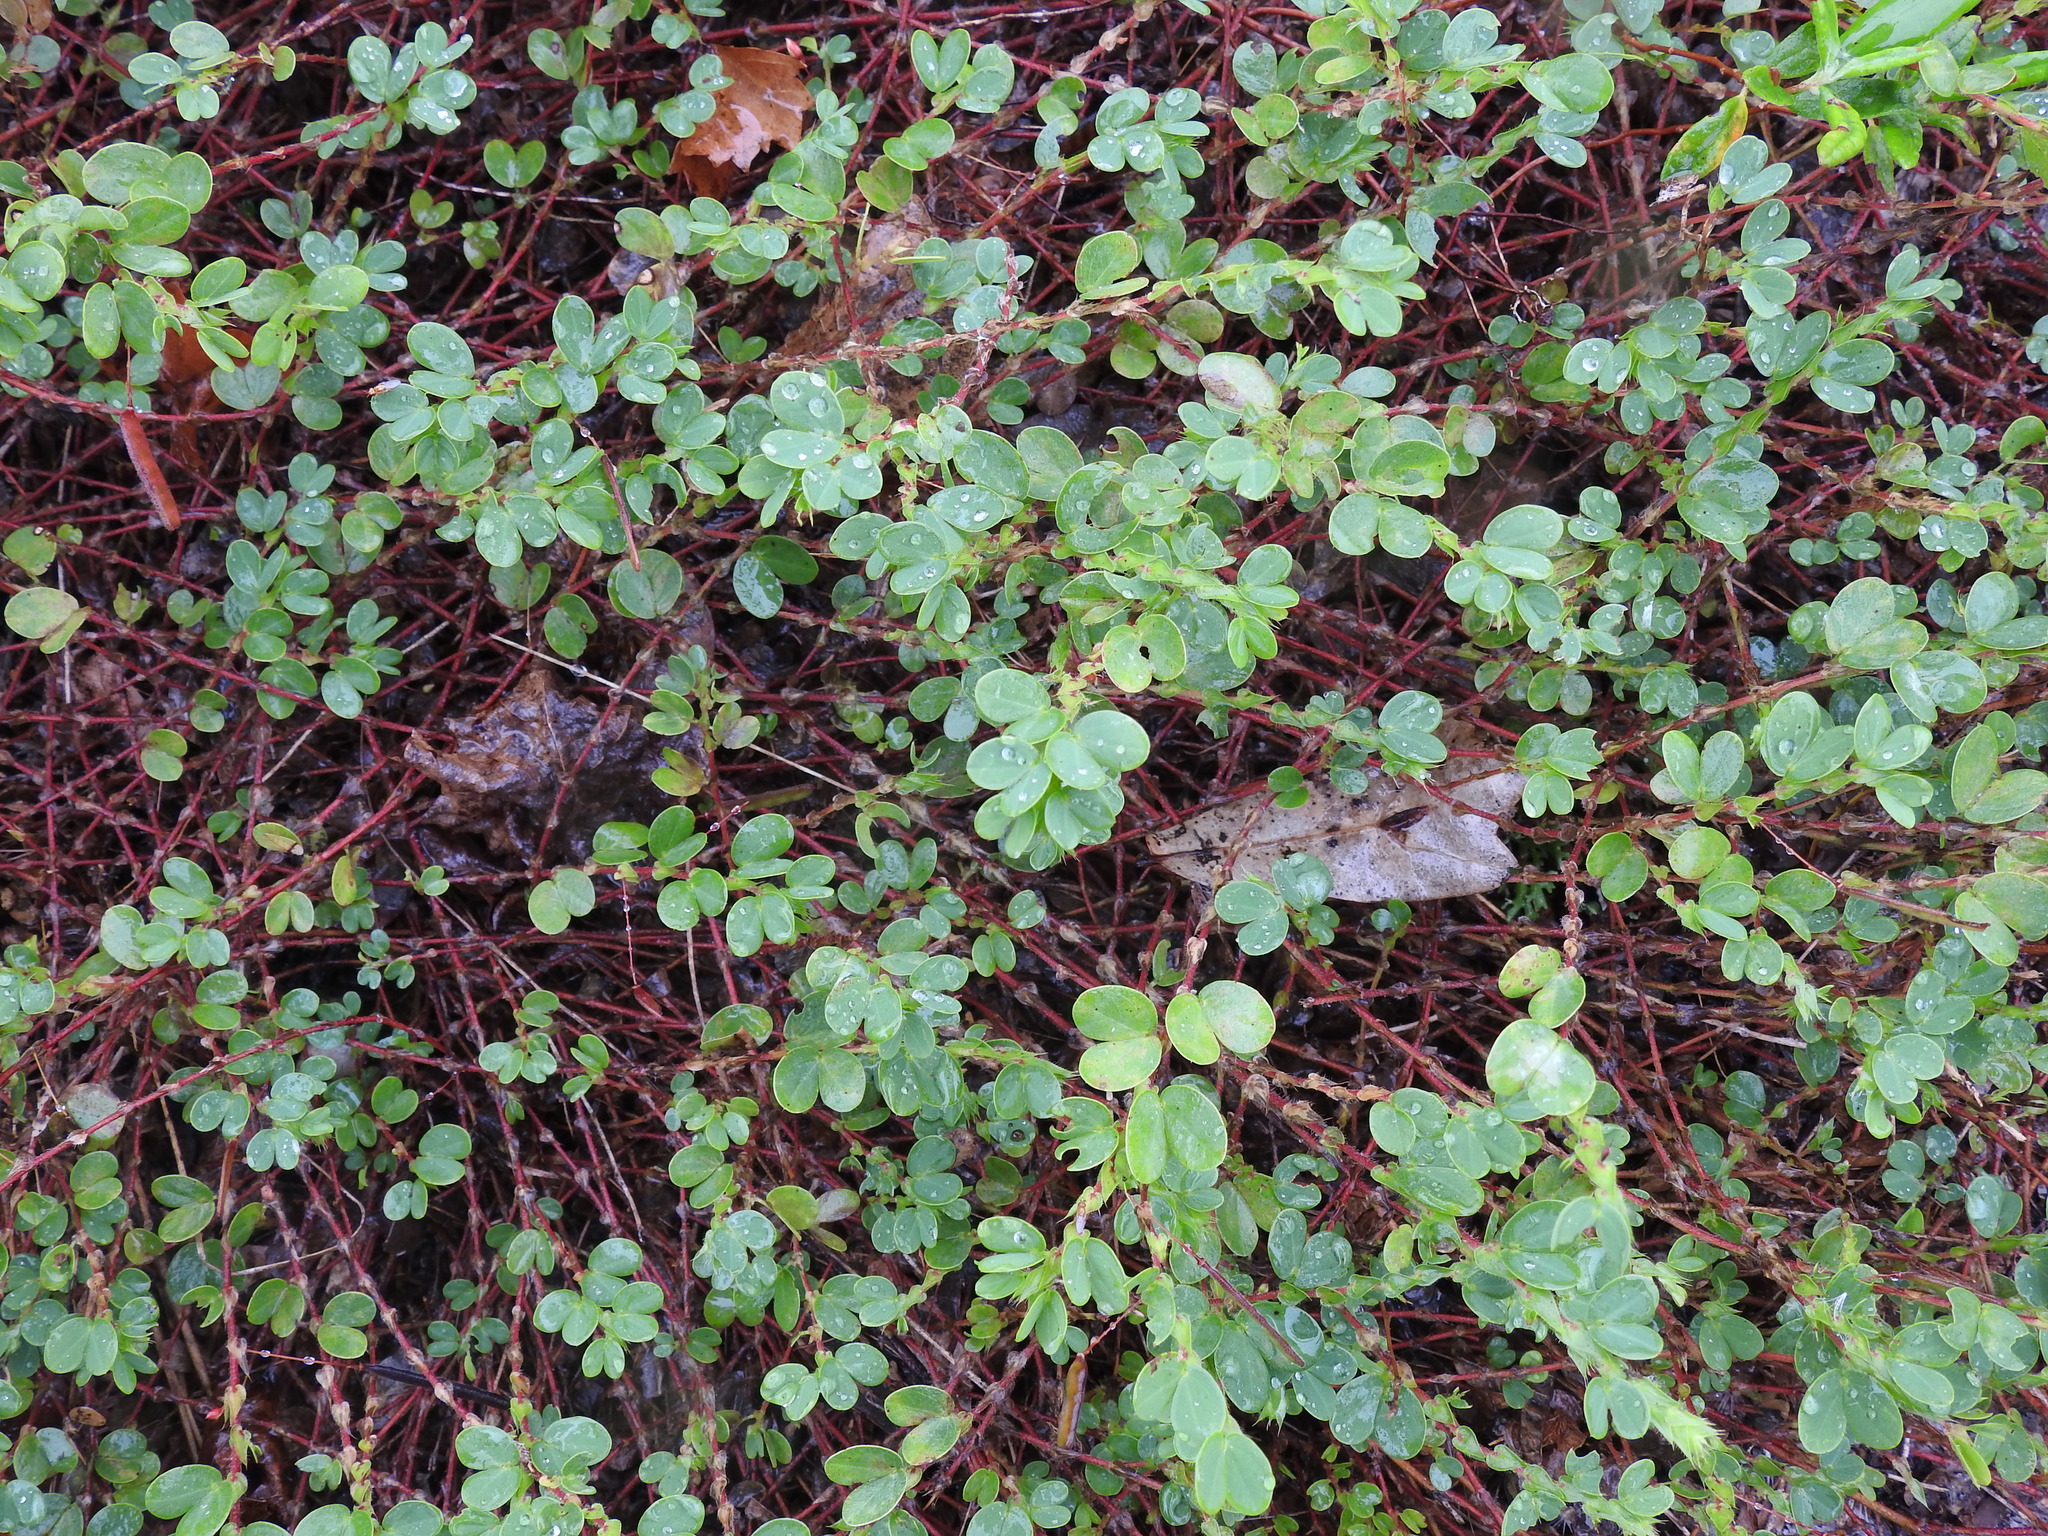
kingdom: Plantae
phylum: Tracheophyta
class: Magnoliopsida
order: Fabales
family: Fabaceae
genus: Chamaecrista
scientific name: Chamaecrista rotundifolia
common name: Round-leaf cassia
